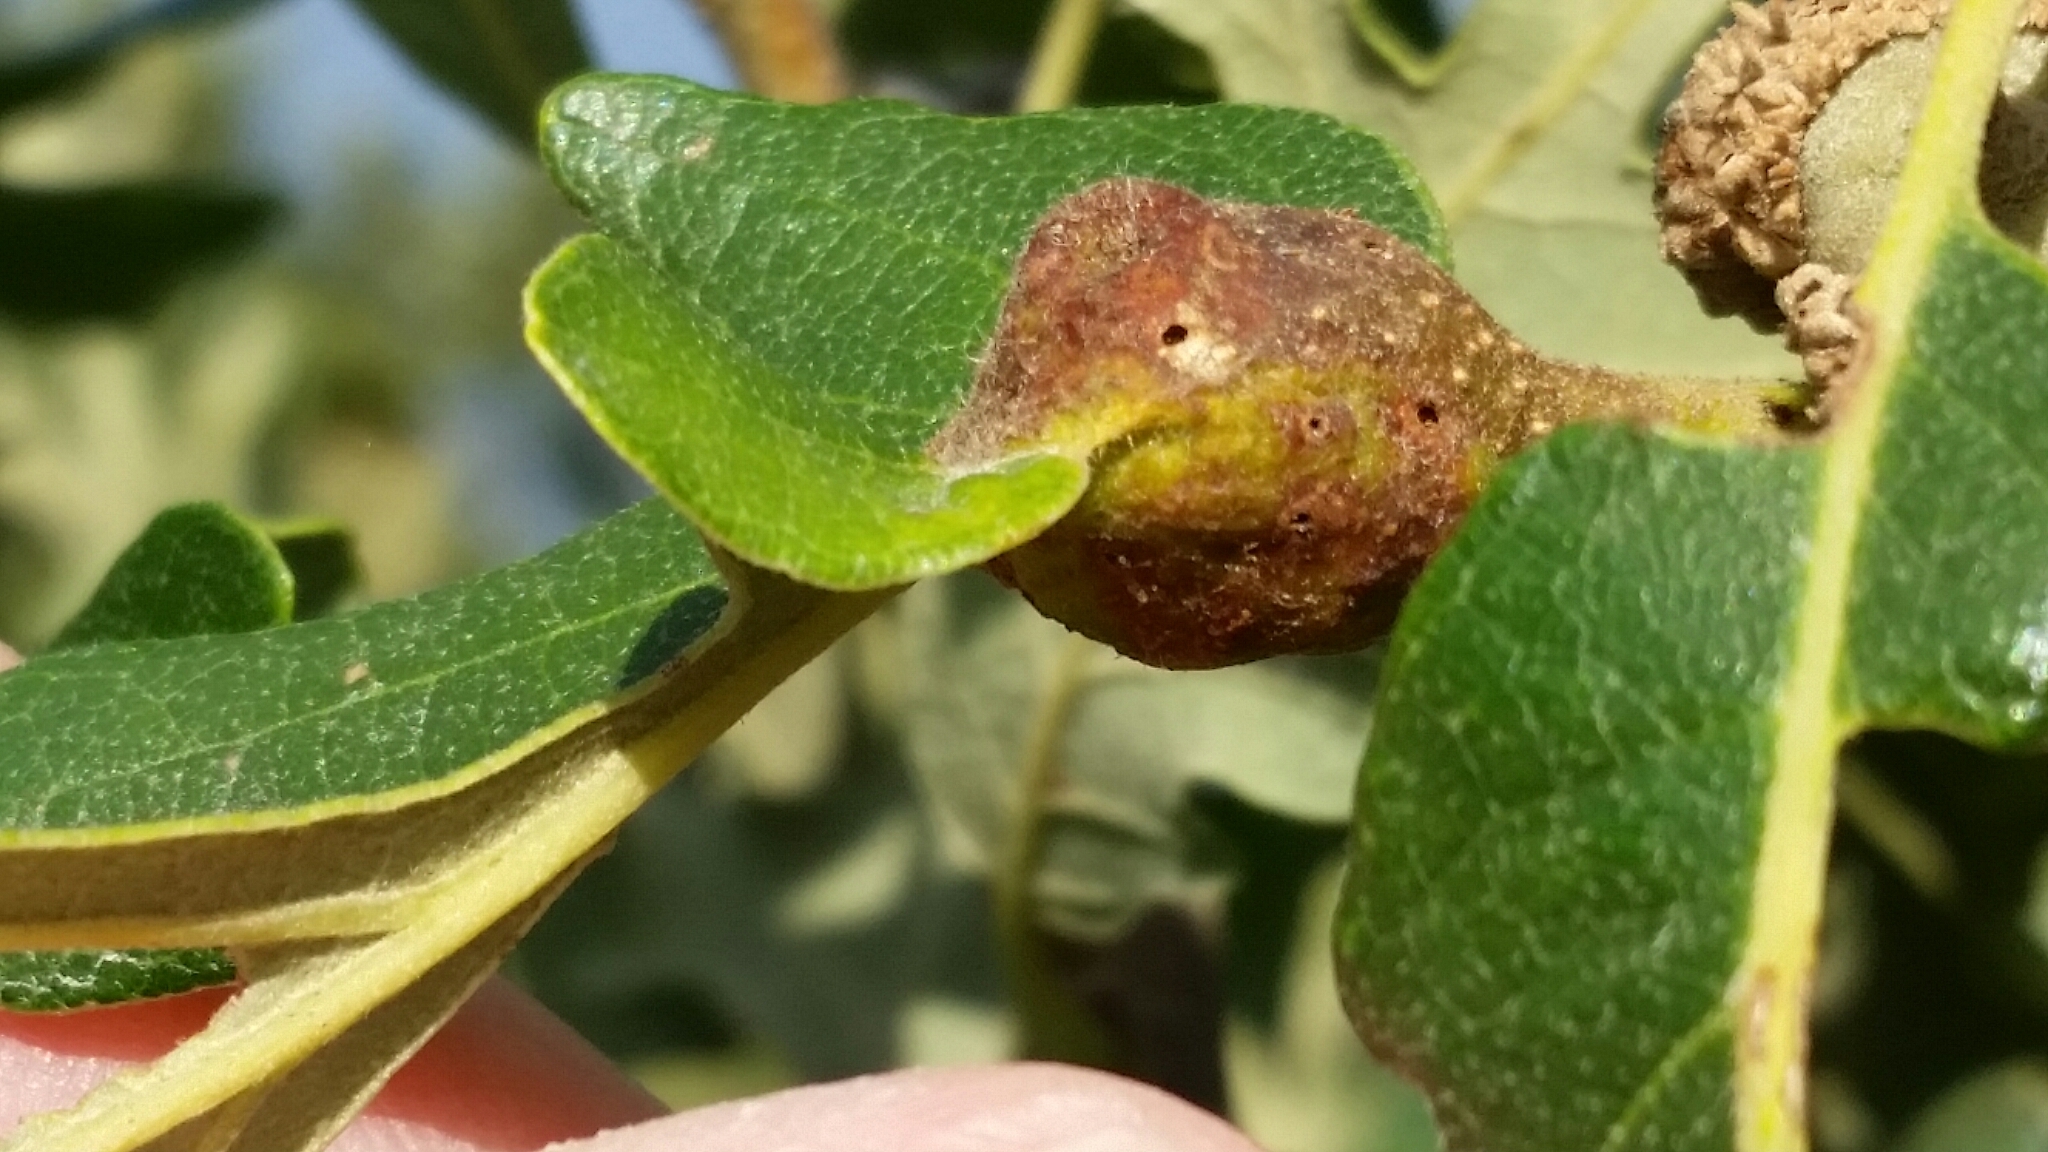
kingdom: Animalia
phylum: Arthropoda
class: Insecta
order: Hymenoptera
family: Cynipidae
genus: Andricus
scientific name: Andricus
